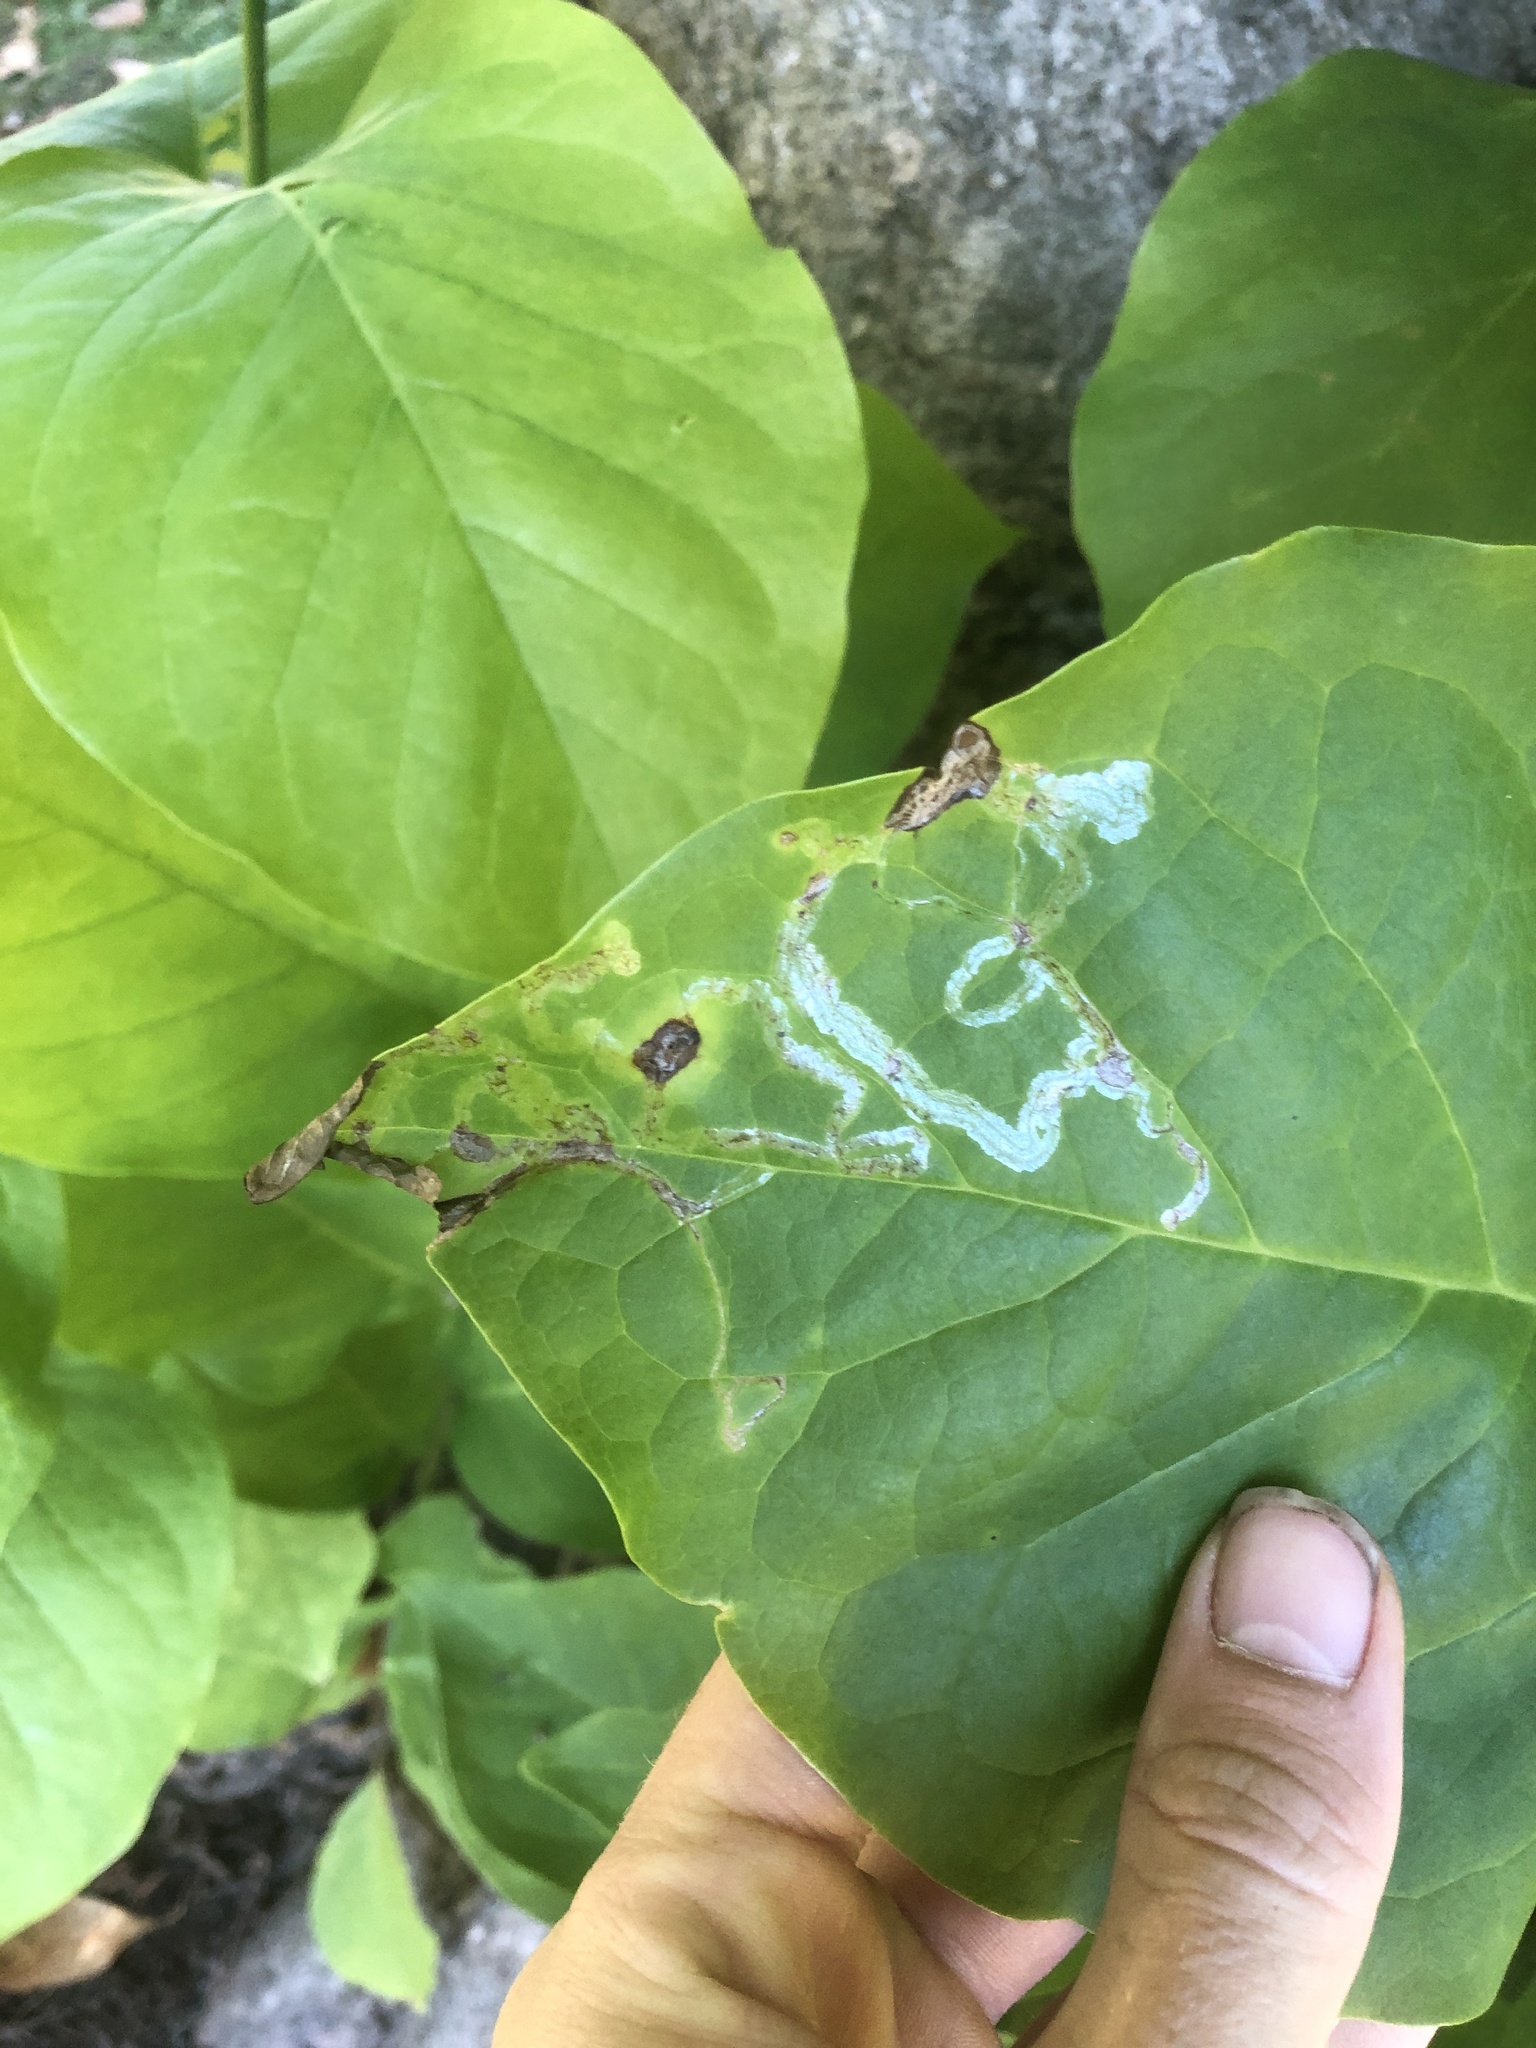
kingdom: Animalia
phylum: Arthropoda
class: Insecta
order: Lepidoptera
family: Gracillariidae
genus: Phyllocnistis
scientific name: Phyllocnistis liriodendronella
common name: Tulip tree leaf miner
